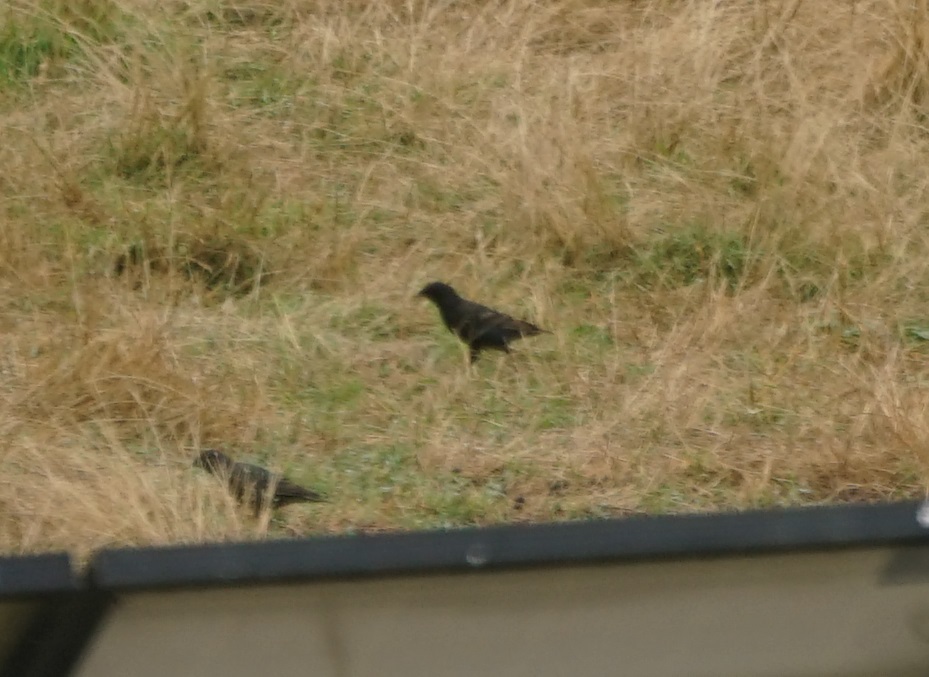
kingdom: Animalia
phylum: Chordata
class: Aves
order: Passeriformes
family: Sturnidae
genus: Sturnus
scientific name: Sturnus vulgaris
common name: Common starling
